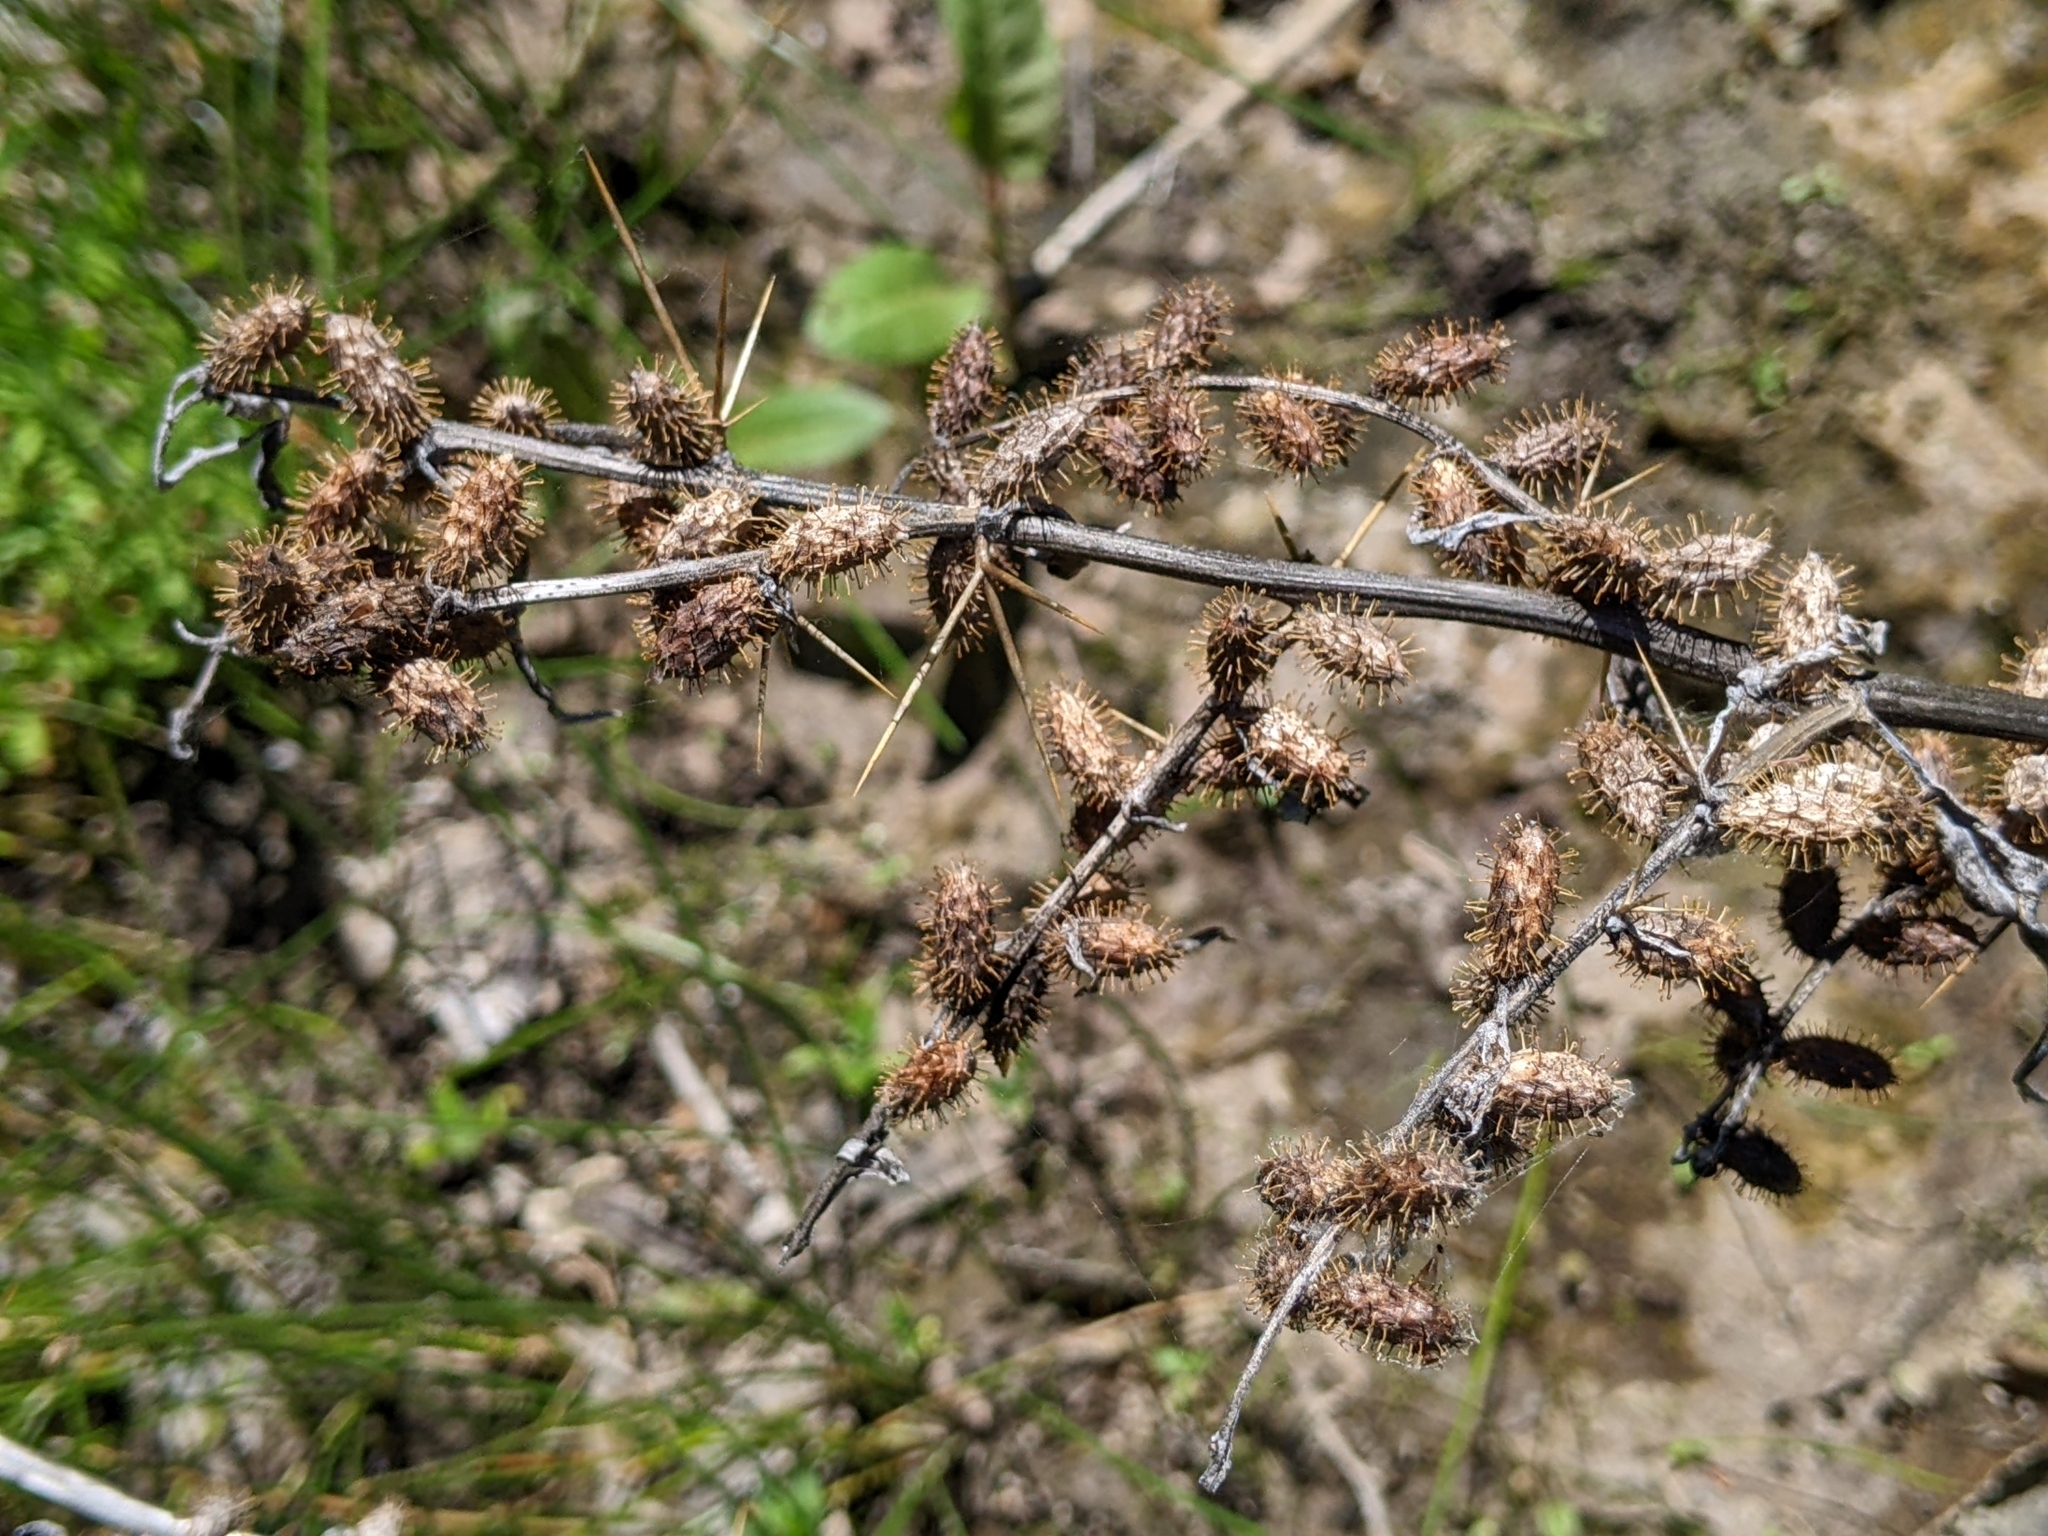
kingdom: Plantae
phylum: Tracheophyta
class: Magnoliopsida
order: Asterales
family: Asteraceae
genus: Xanthium
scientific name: Xanthium strumarium
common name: Rough cocklebur
